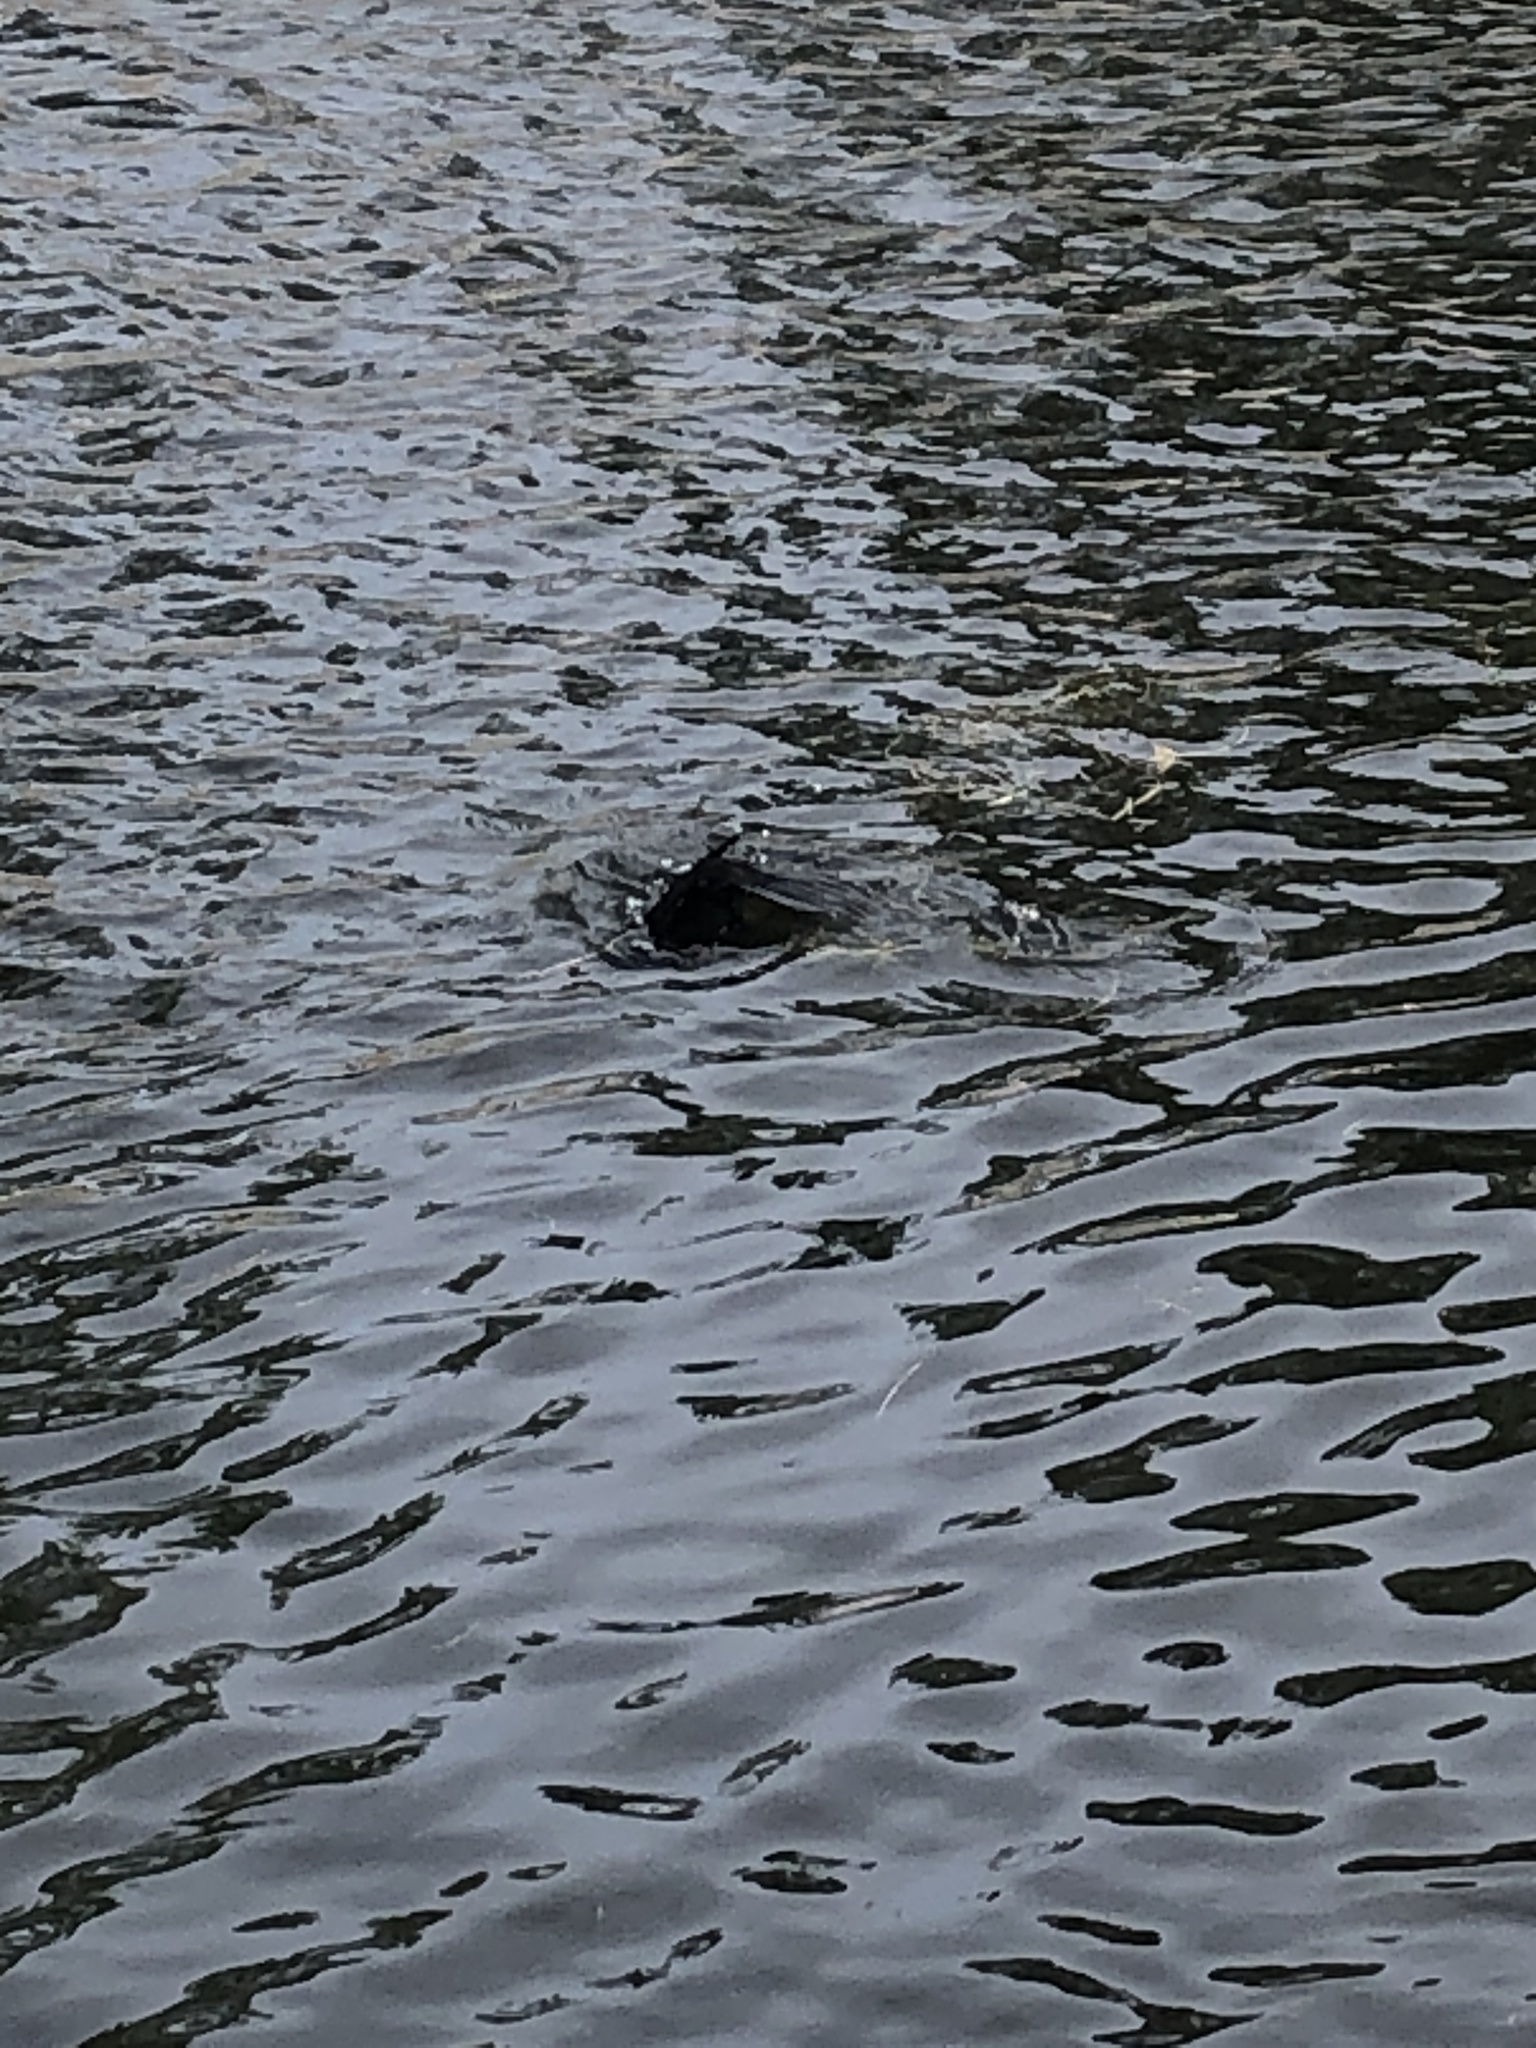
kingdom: Animalia
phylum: Chordata
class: Aves
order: Suliformes
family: Phalacrocoracidae
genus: Phalacrocorax
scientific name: Phalacrocorax auritus
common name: Double-crested cormorant
